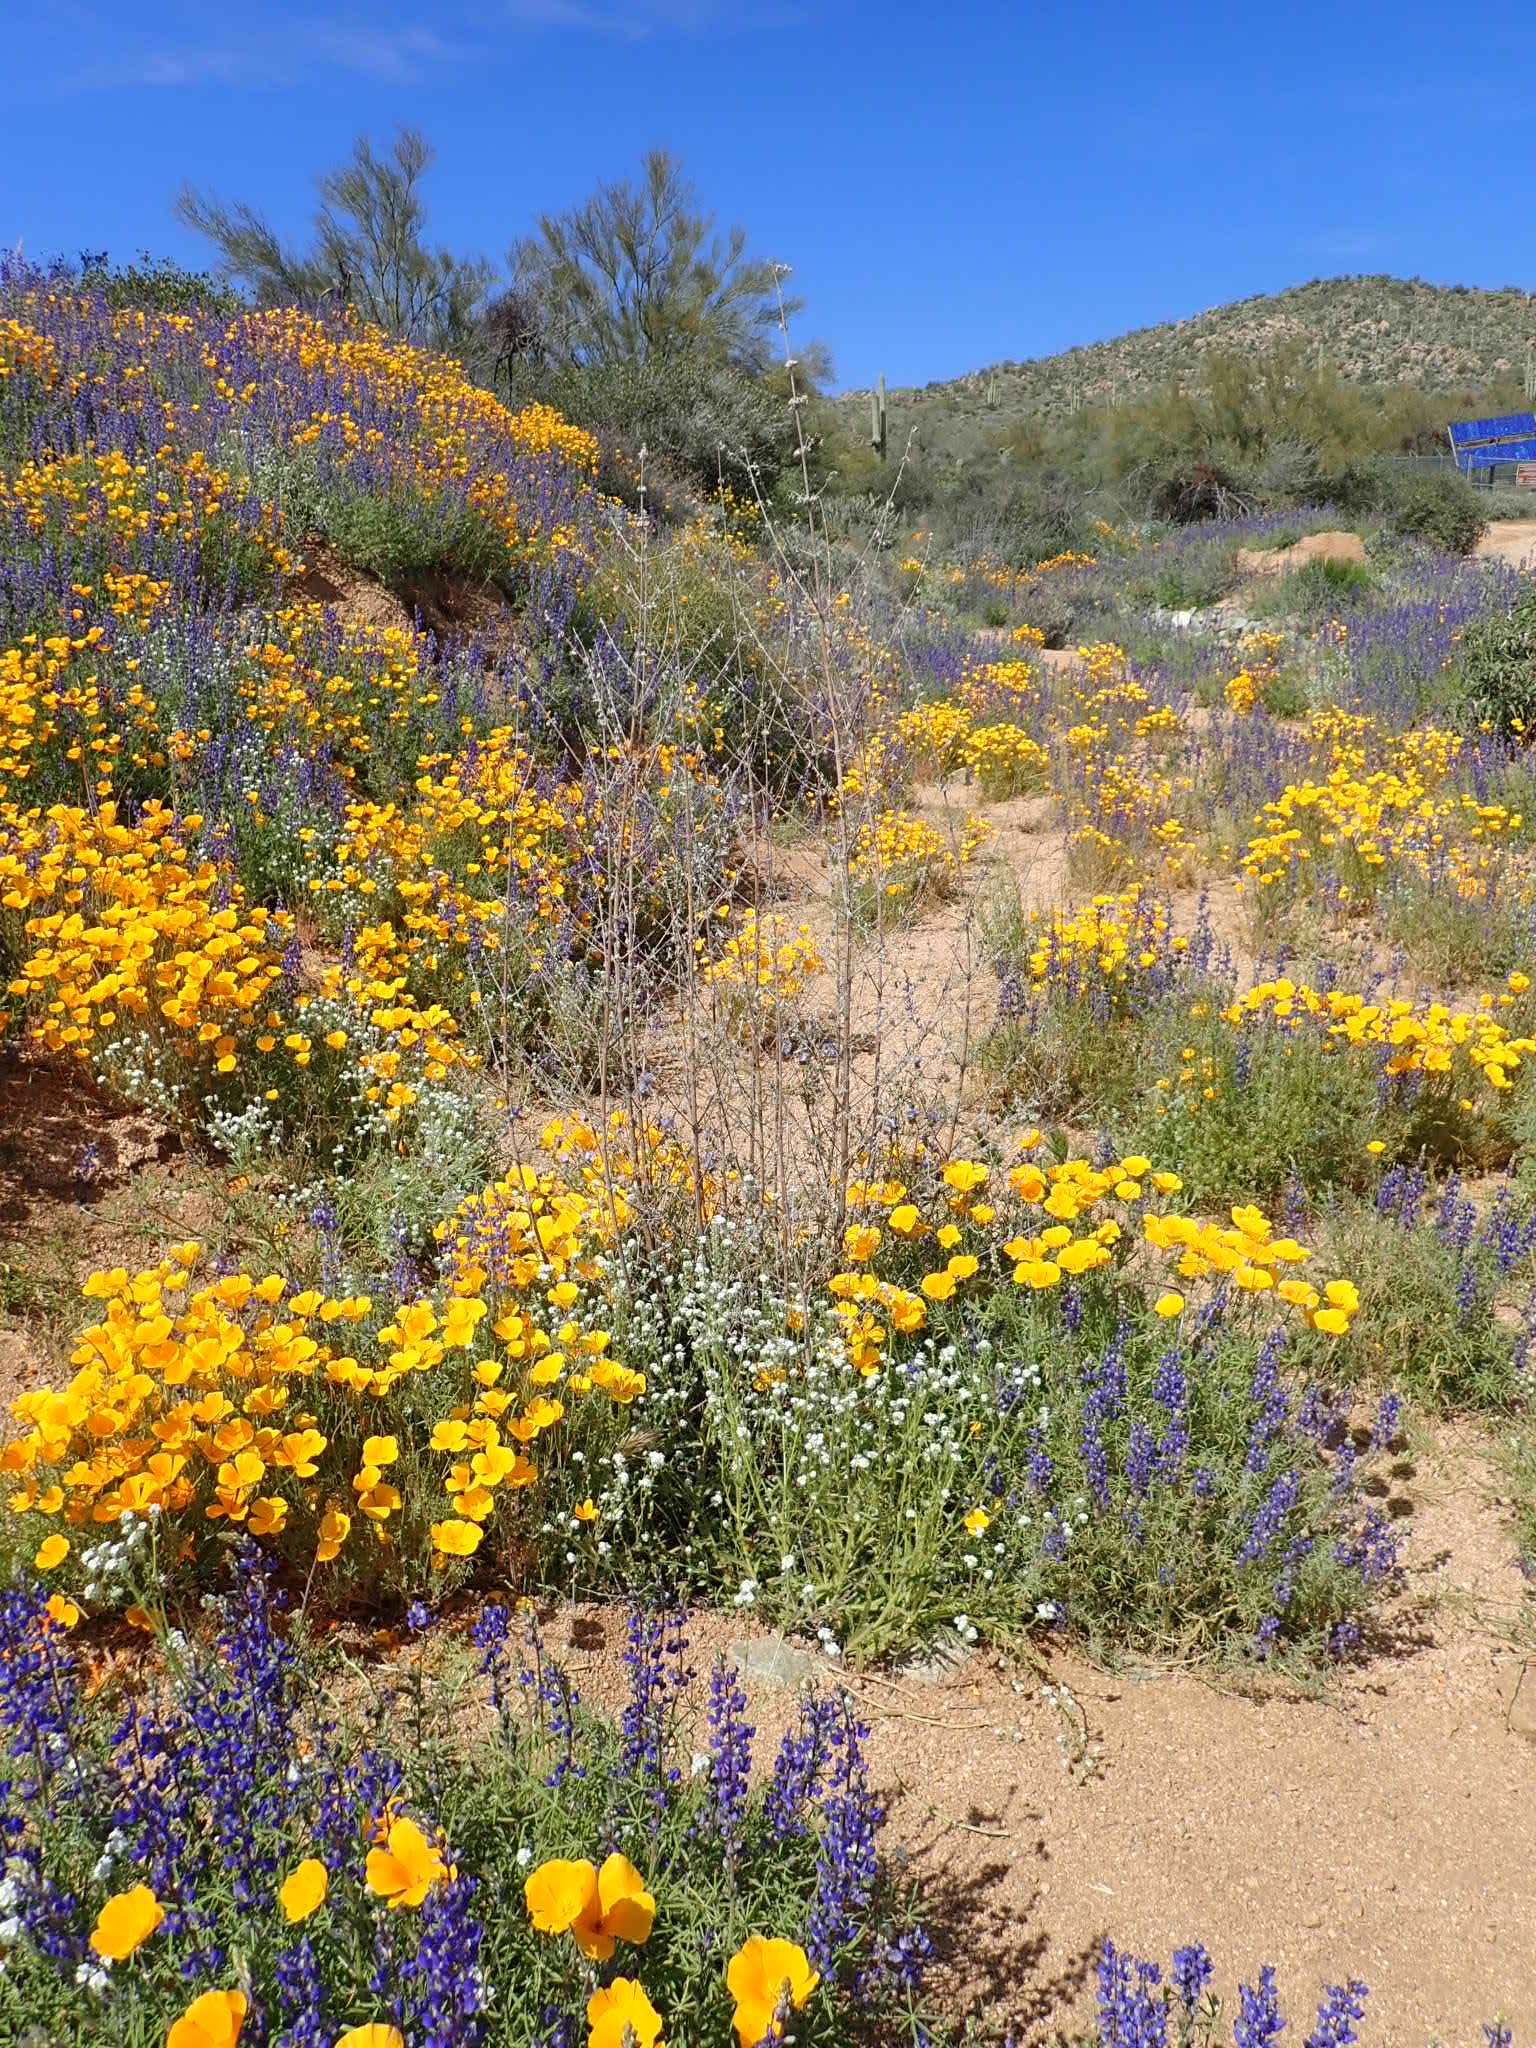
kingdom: Plantae
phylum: Tracheophyta
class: Magnoliopsida
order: Lamiales
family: Lamiaceae
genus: Condea
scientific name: Condea emoryi
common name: Chia
